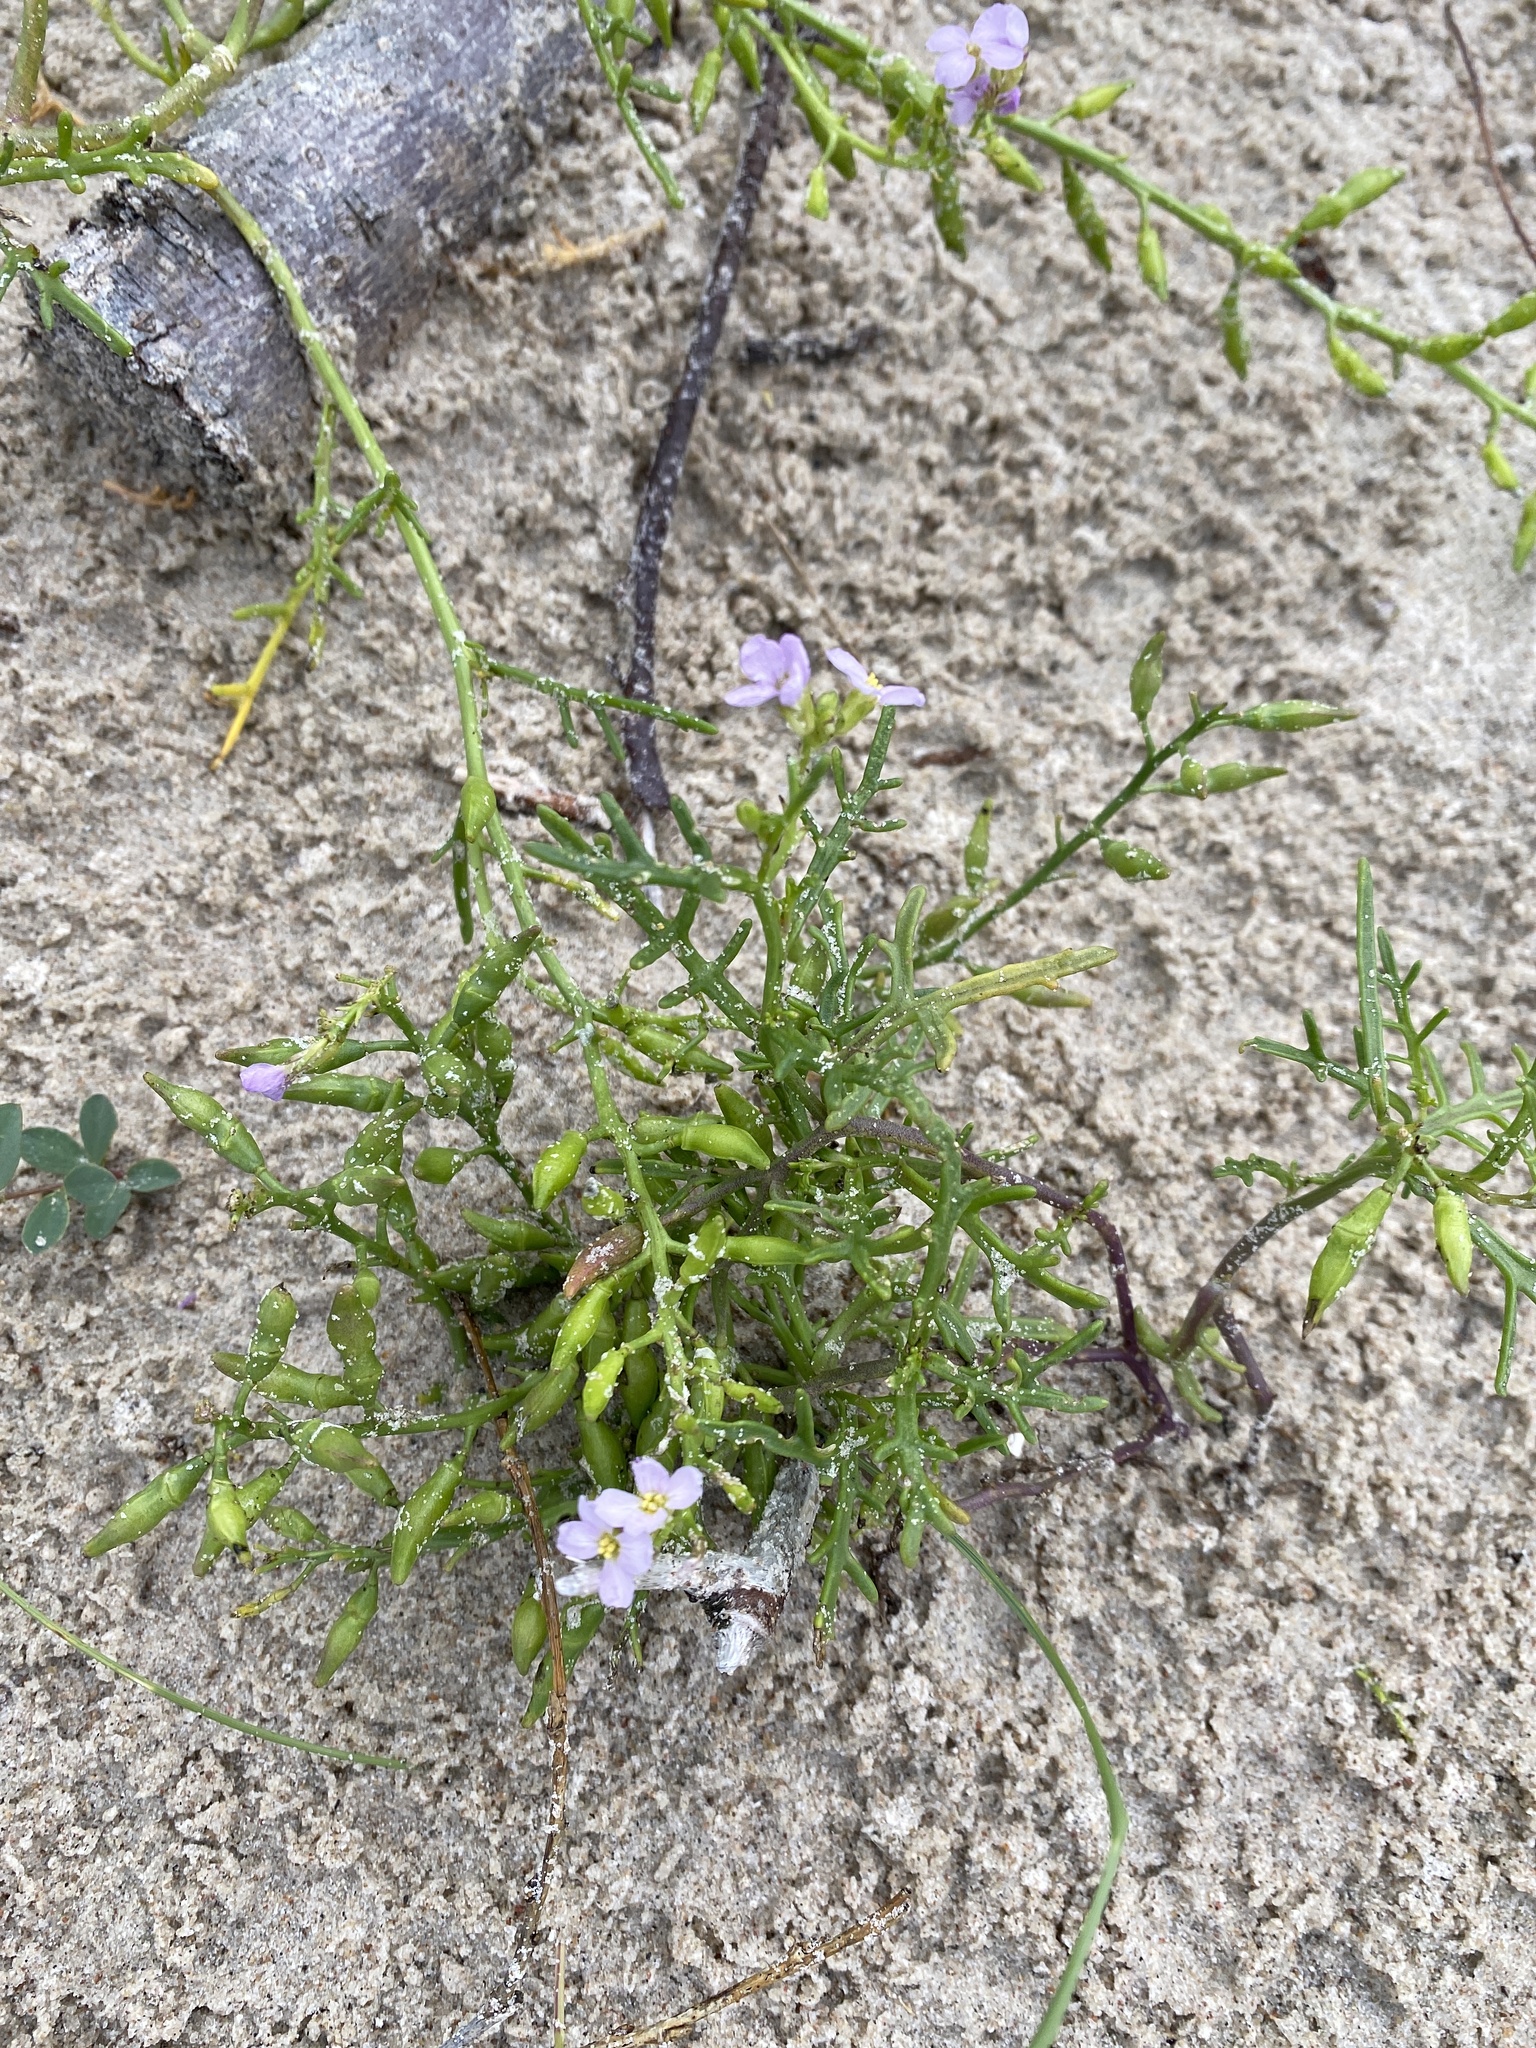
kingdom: Plantae
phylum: Tracheophyta
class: Magnoliopsida
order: Brassicales
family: Brassicaceae
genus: Cakile
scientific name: Cakile maritima
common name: Sea rocket
